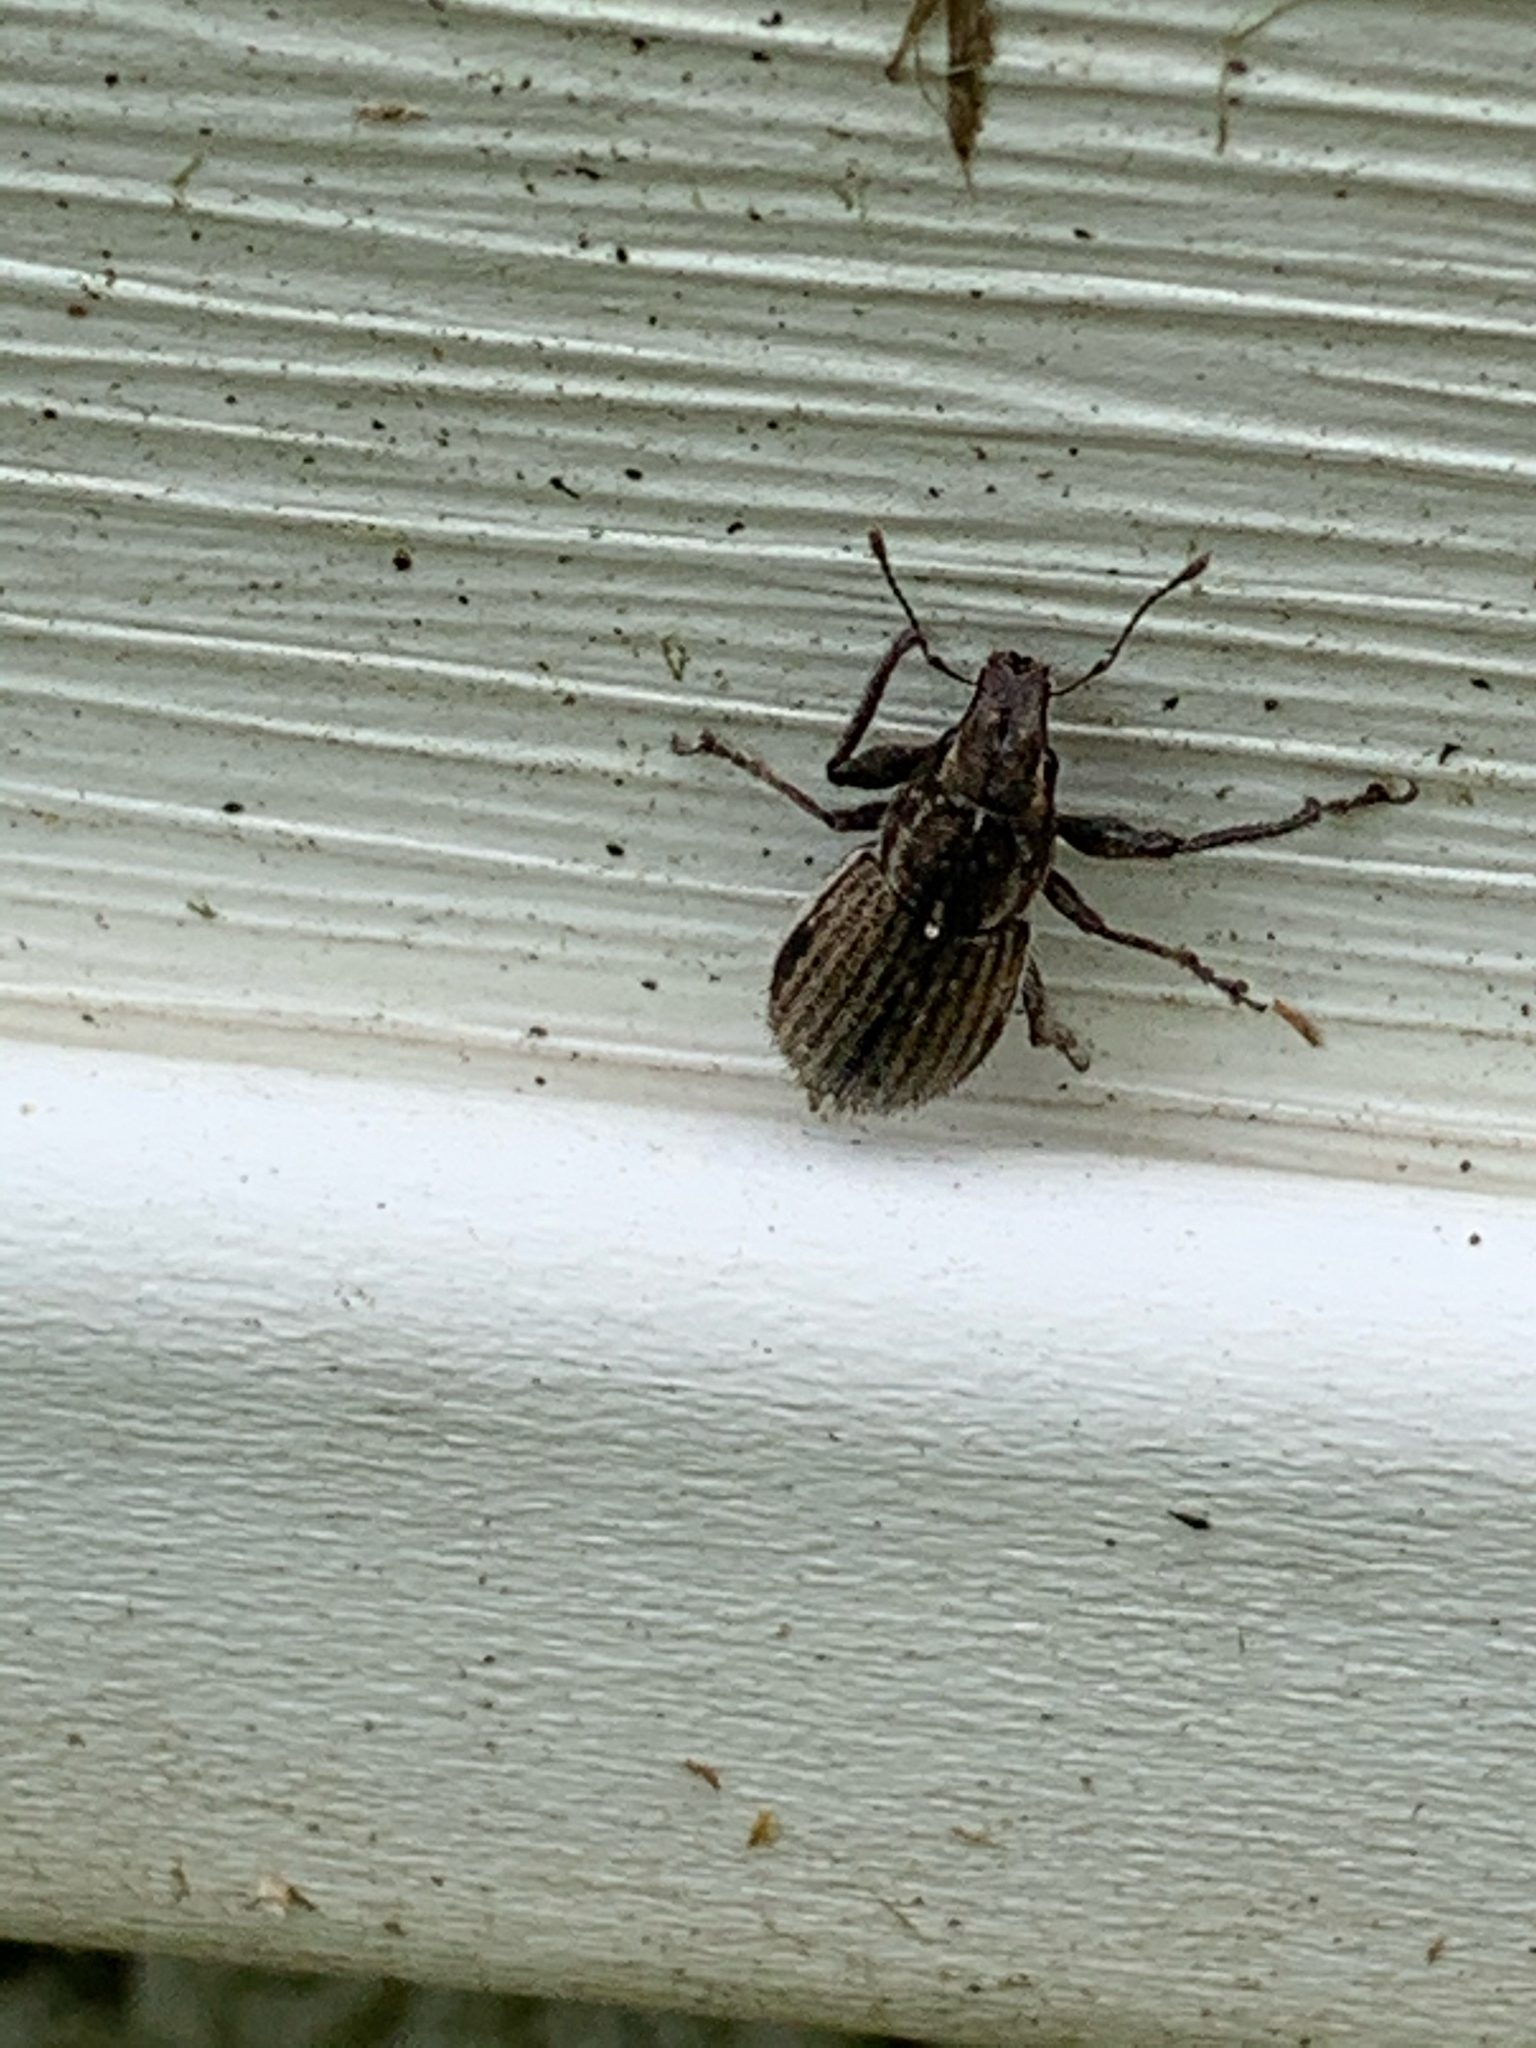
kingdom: Animalia
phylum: Arthropoda
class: Insecta
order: Coleoptera
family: Curculionidae
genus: Naupactus
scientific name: Naupactus leucoloma
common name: Whitefringed beetle
